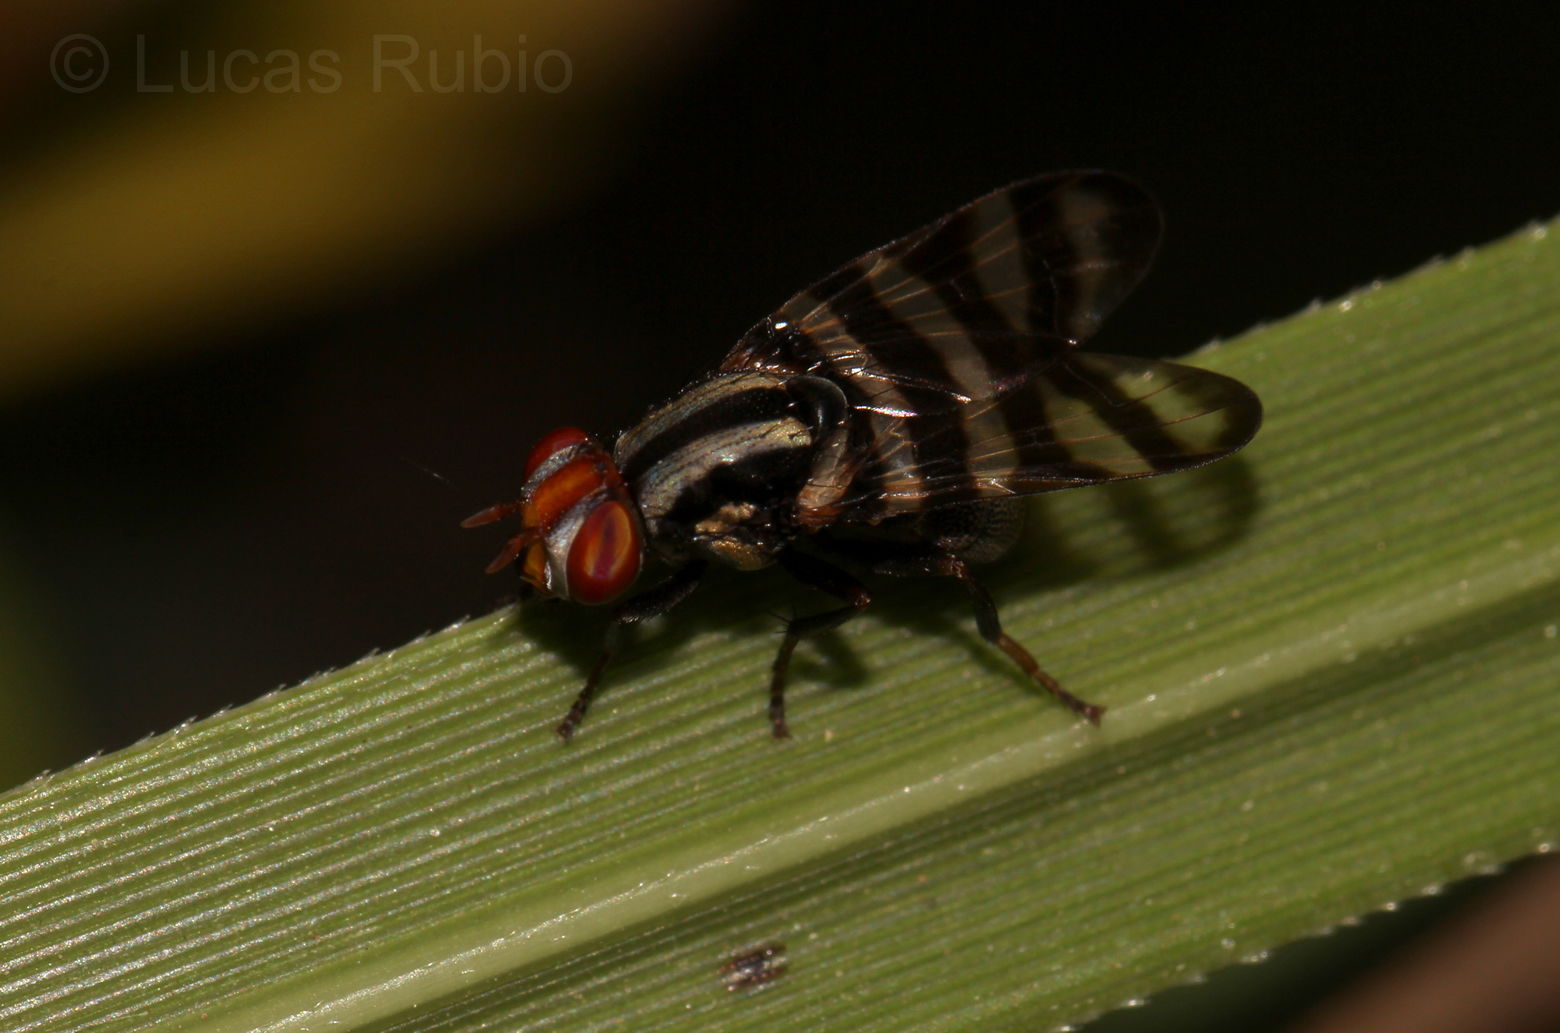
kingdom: Animalia
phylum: Arthropoda
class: Insecta
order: Diptera
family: Ulidiidae
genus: Pterotaenia
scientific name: Pterotaenia fasciata
